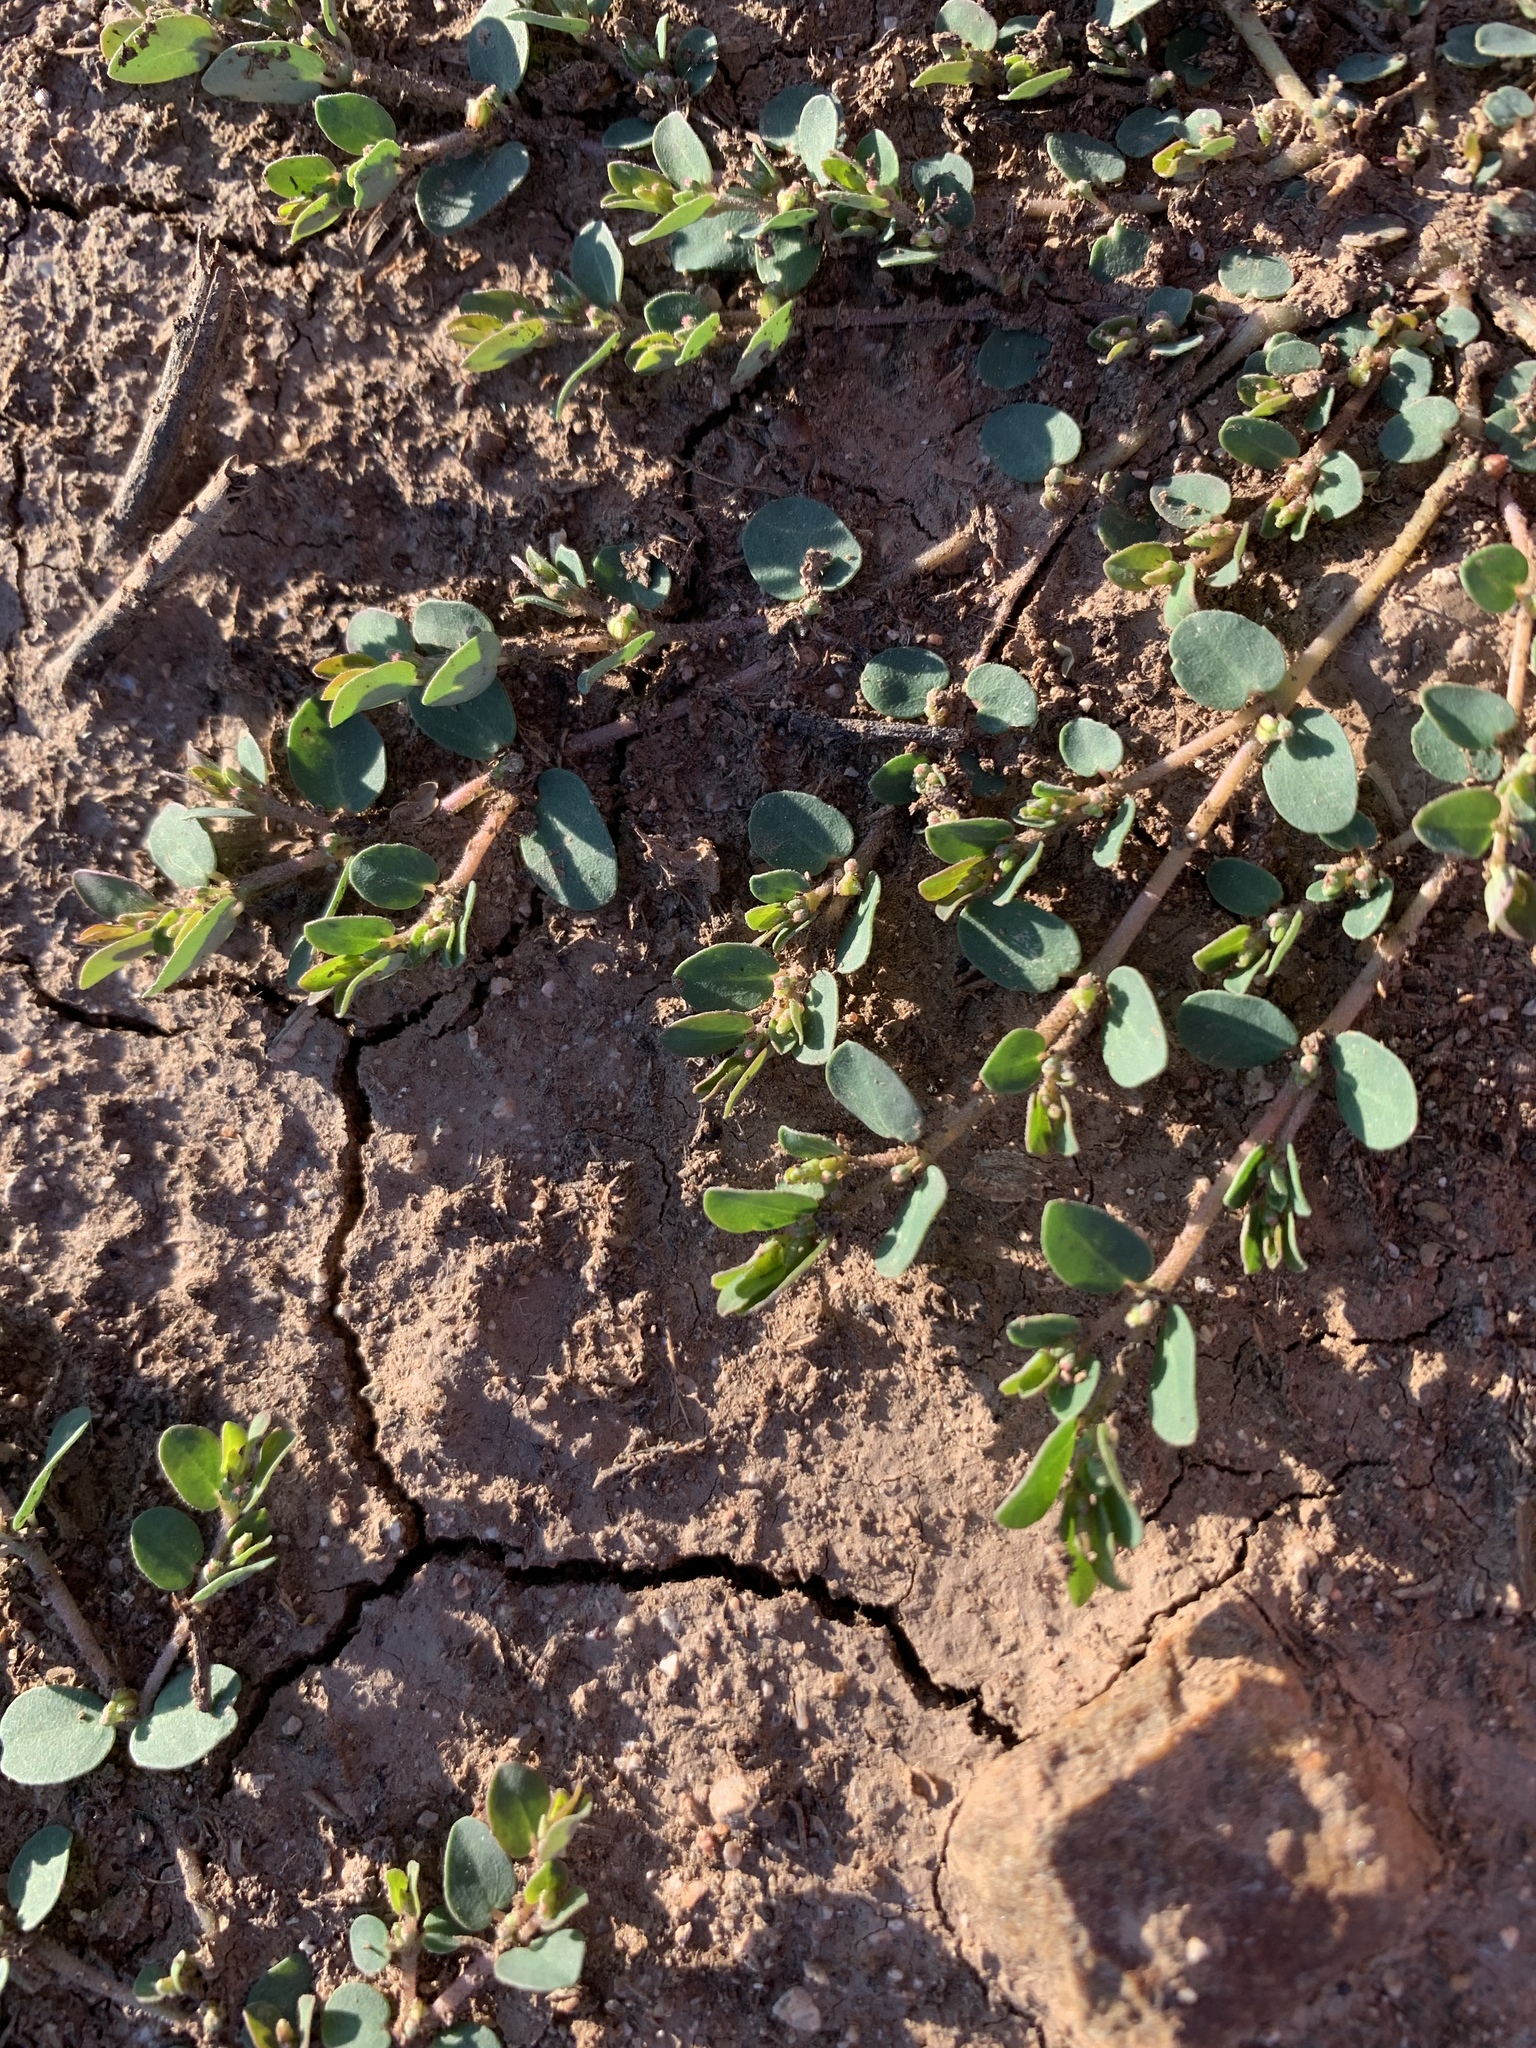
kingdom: Plantae
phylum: Tracheophyta
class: Magnoliopsida
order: Malpighiales
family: Euphorbiaceae
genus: Euphorbia
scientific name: Euphorbia prostrata
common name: Prostrate sandmat
